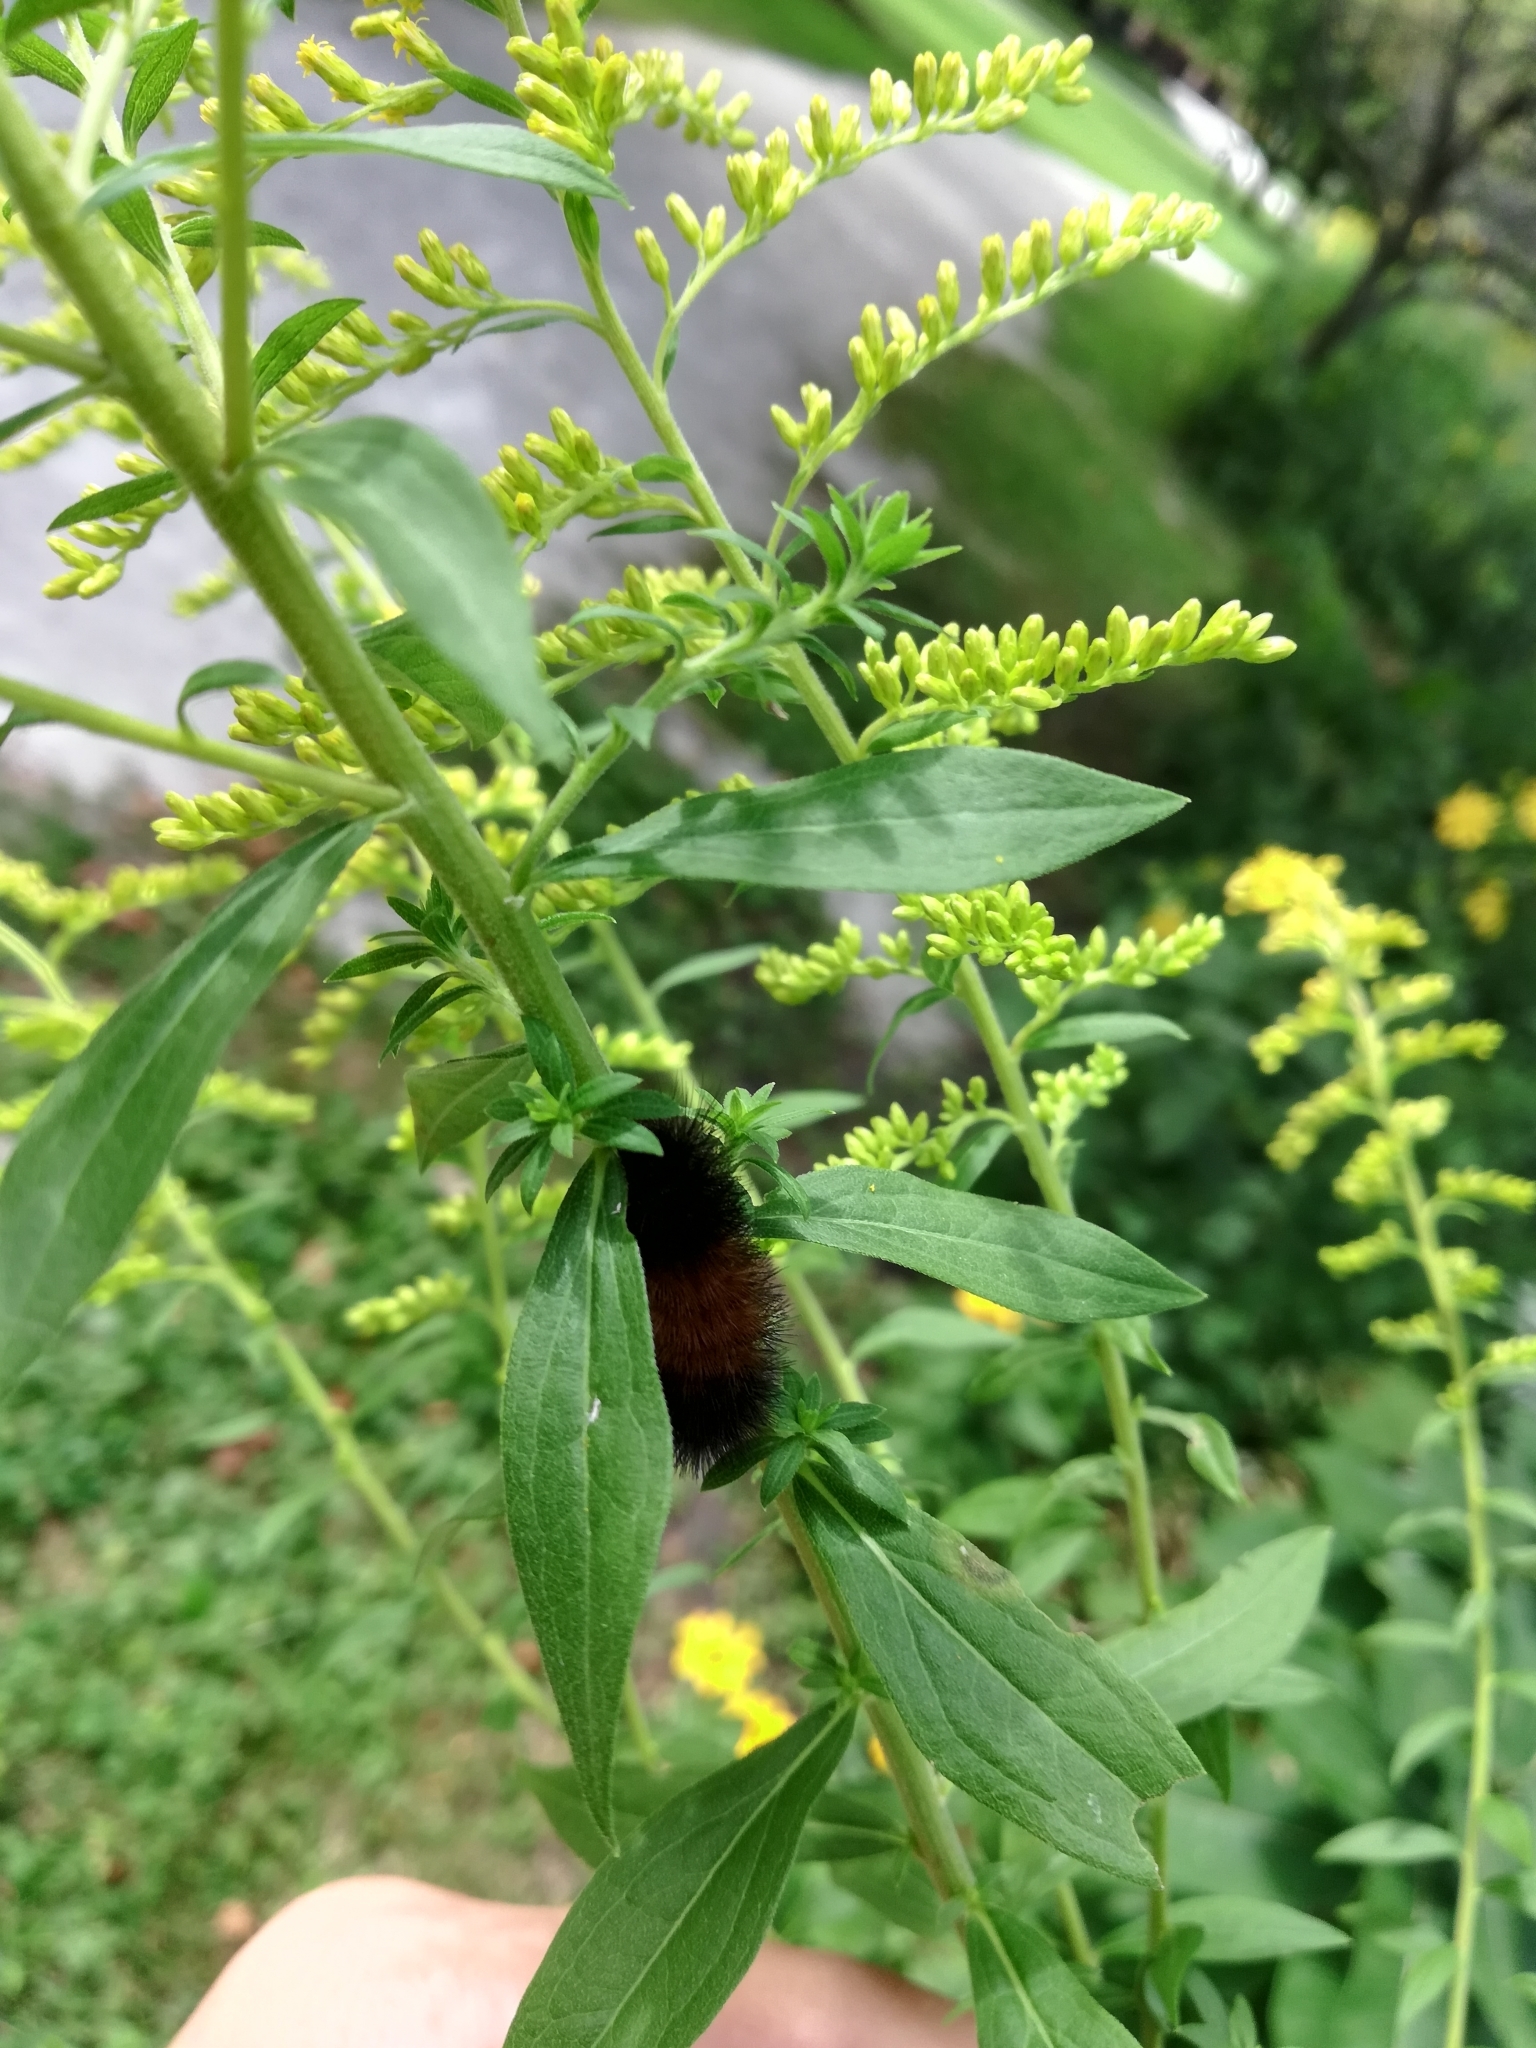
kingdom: Animalia
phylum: Arthropoda
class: Insecta
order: Lepidoptera
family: Erebidae
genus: Pyrrharctia
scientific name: Pyrrharctia isabella
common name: Isabella tiger moth
